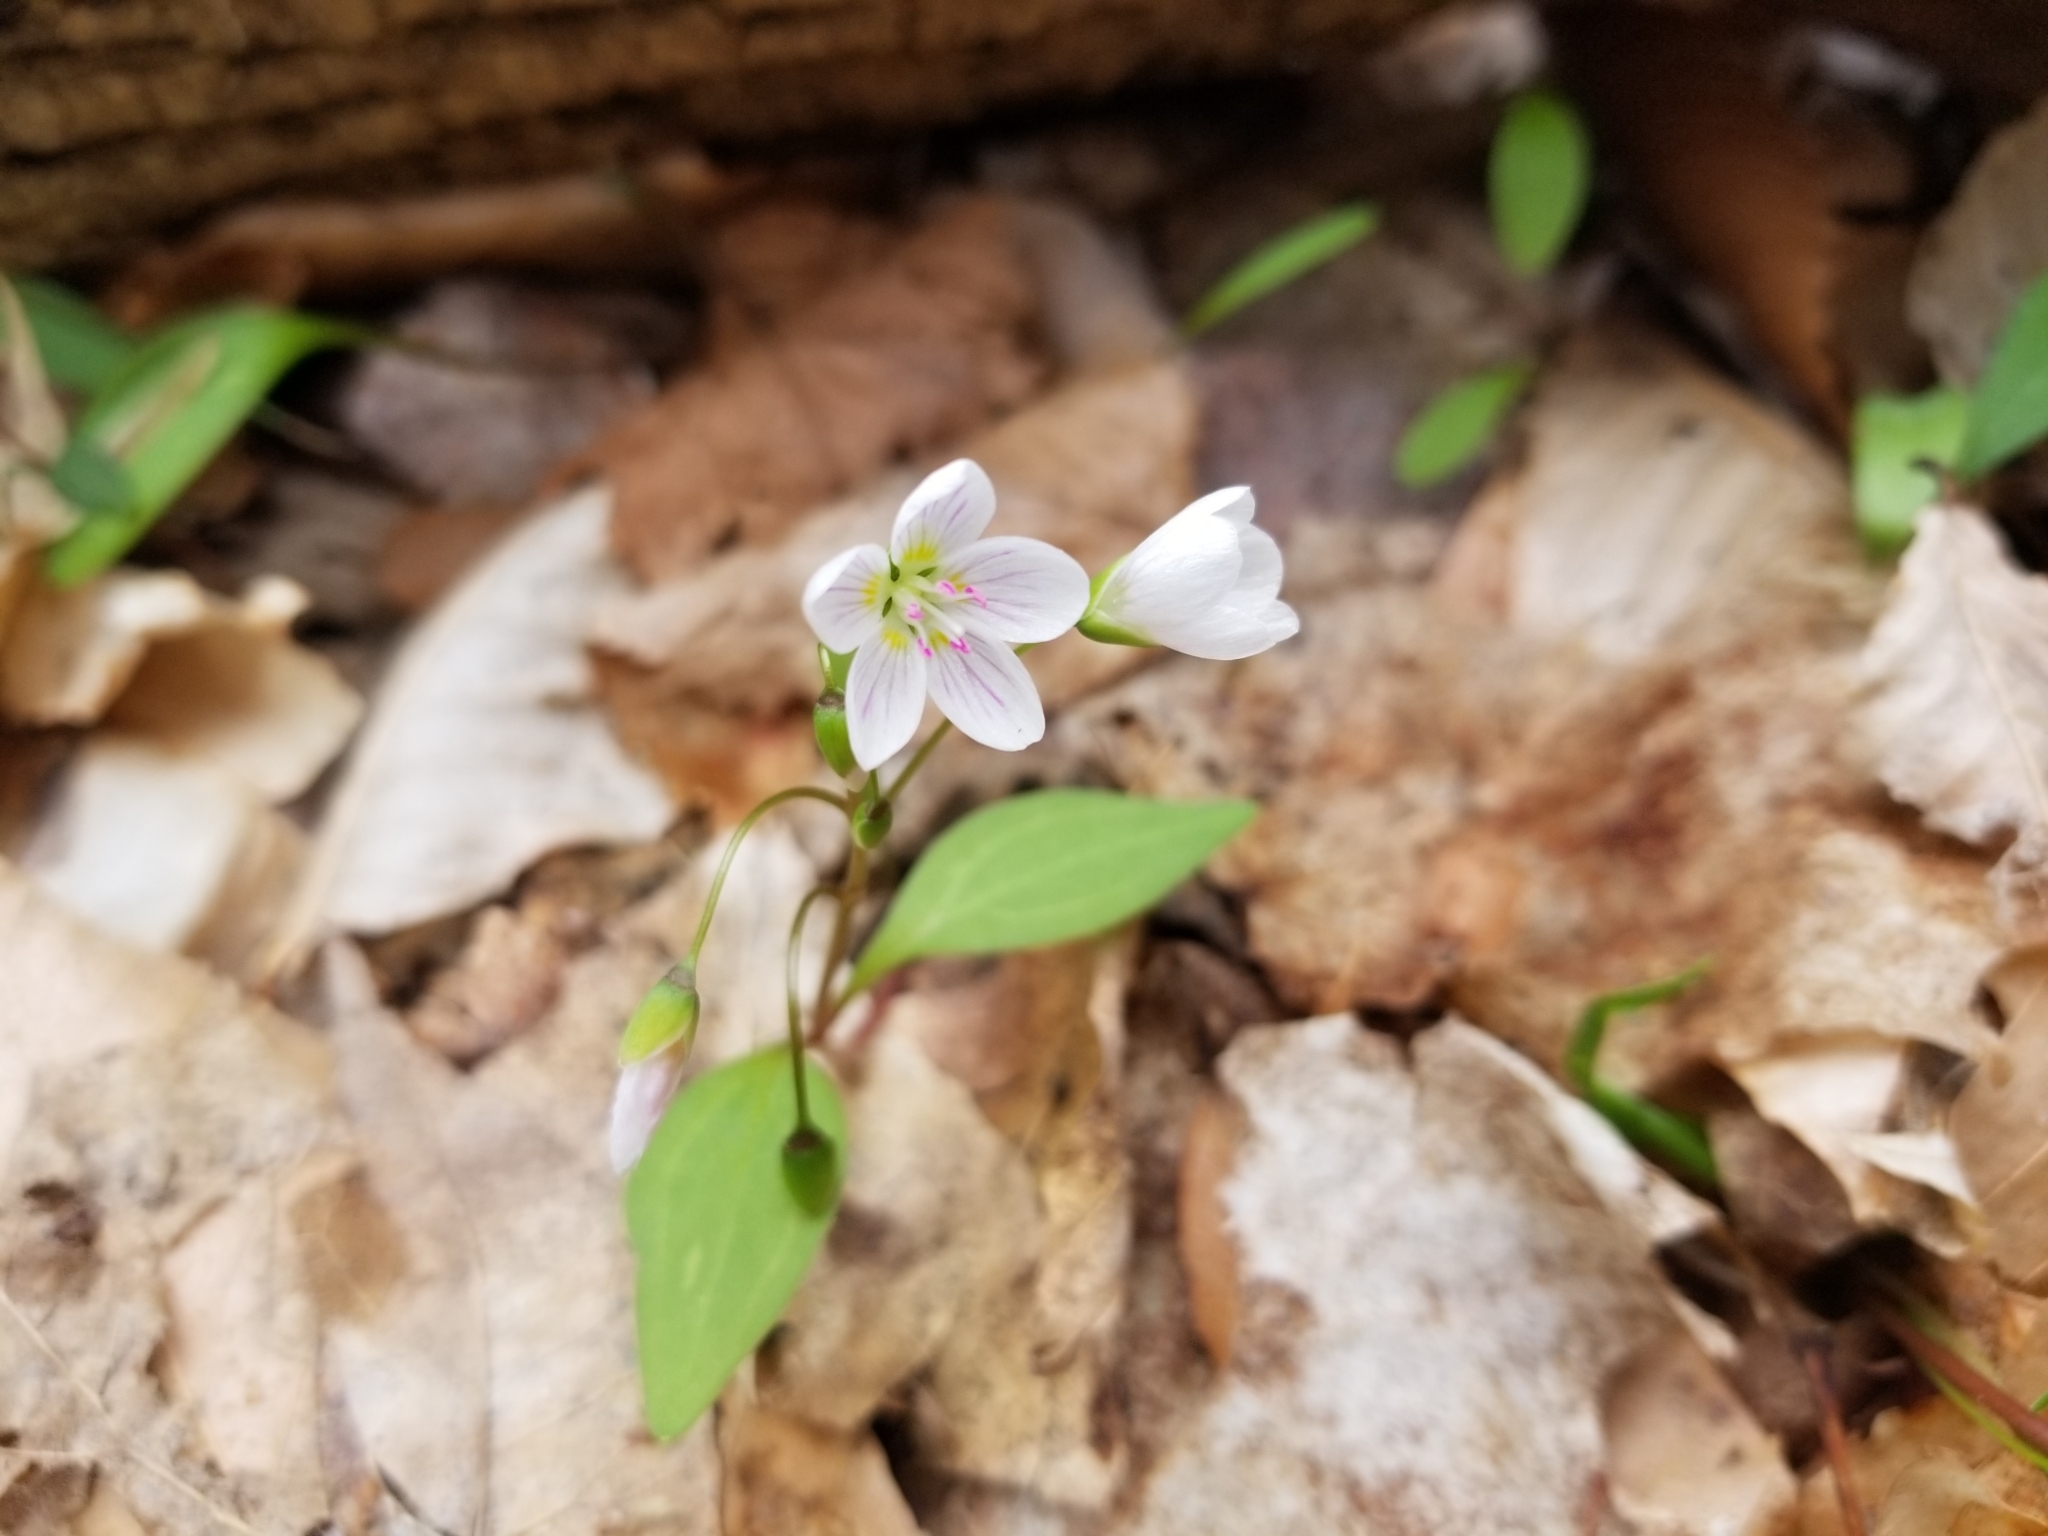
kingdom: Plantae
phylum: Tracheophyta
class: Magnoliopsida
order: Caryophyllales
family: Montiaceae
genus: Claytonia
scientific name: Claytonia caroliniana
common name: Carolina spring beauty
